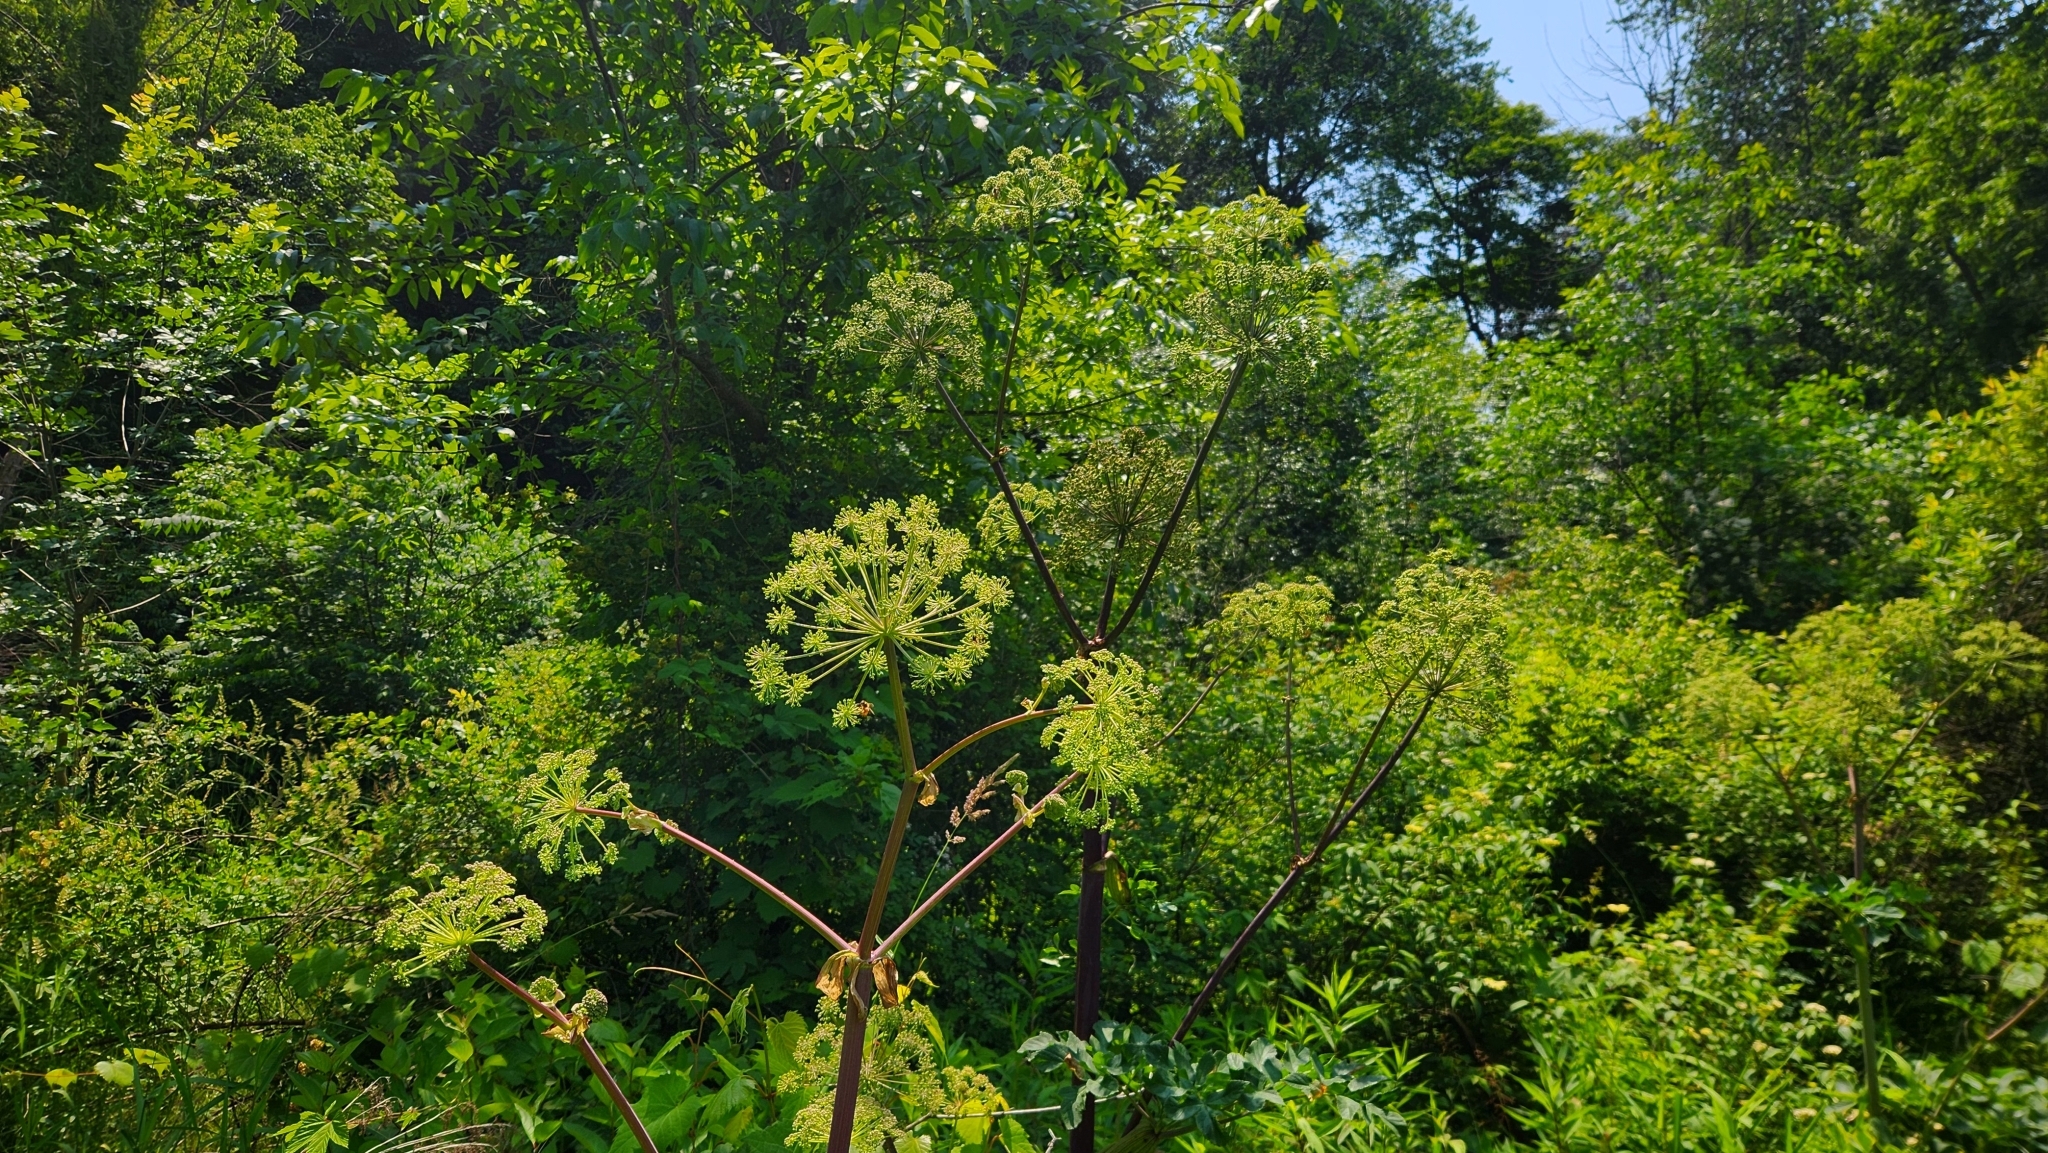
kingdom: Plantae
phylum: Tracheophyta
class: Magnoliopsida
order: Apiales
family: Apiaceae
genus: Angelica
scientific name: Angelica atropurpurea
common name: Great angelica
